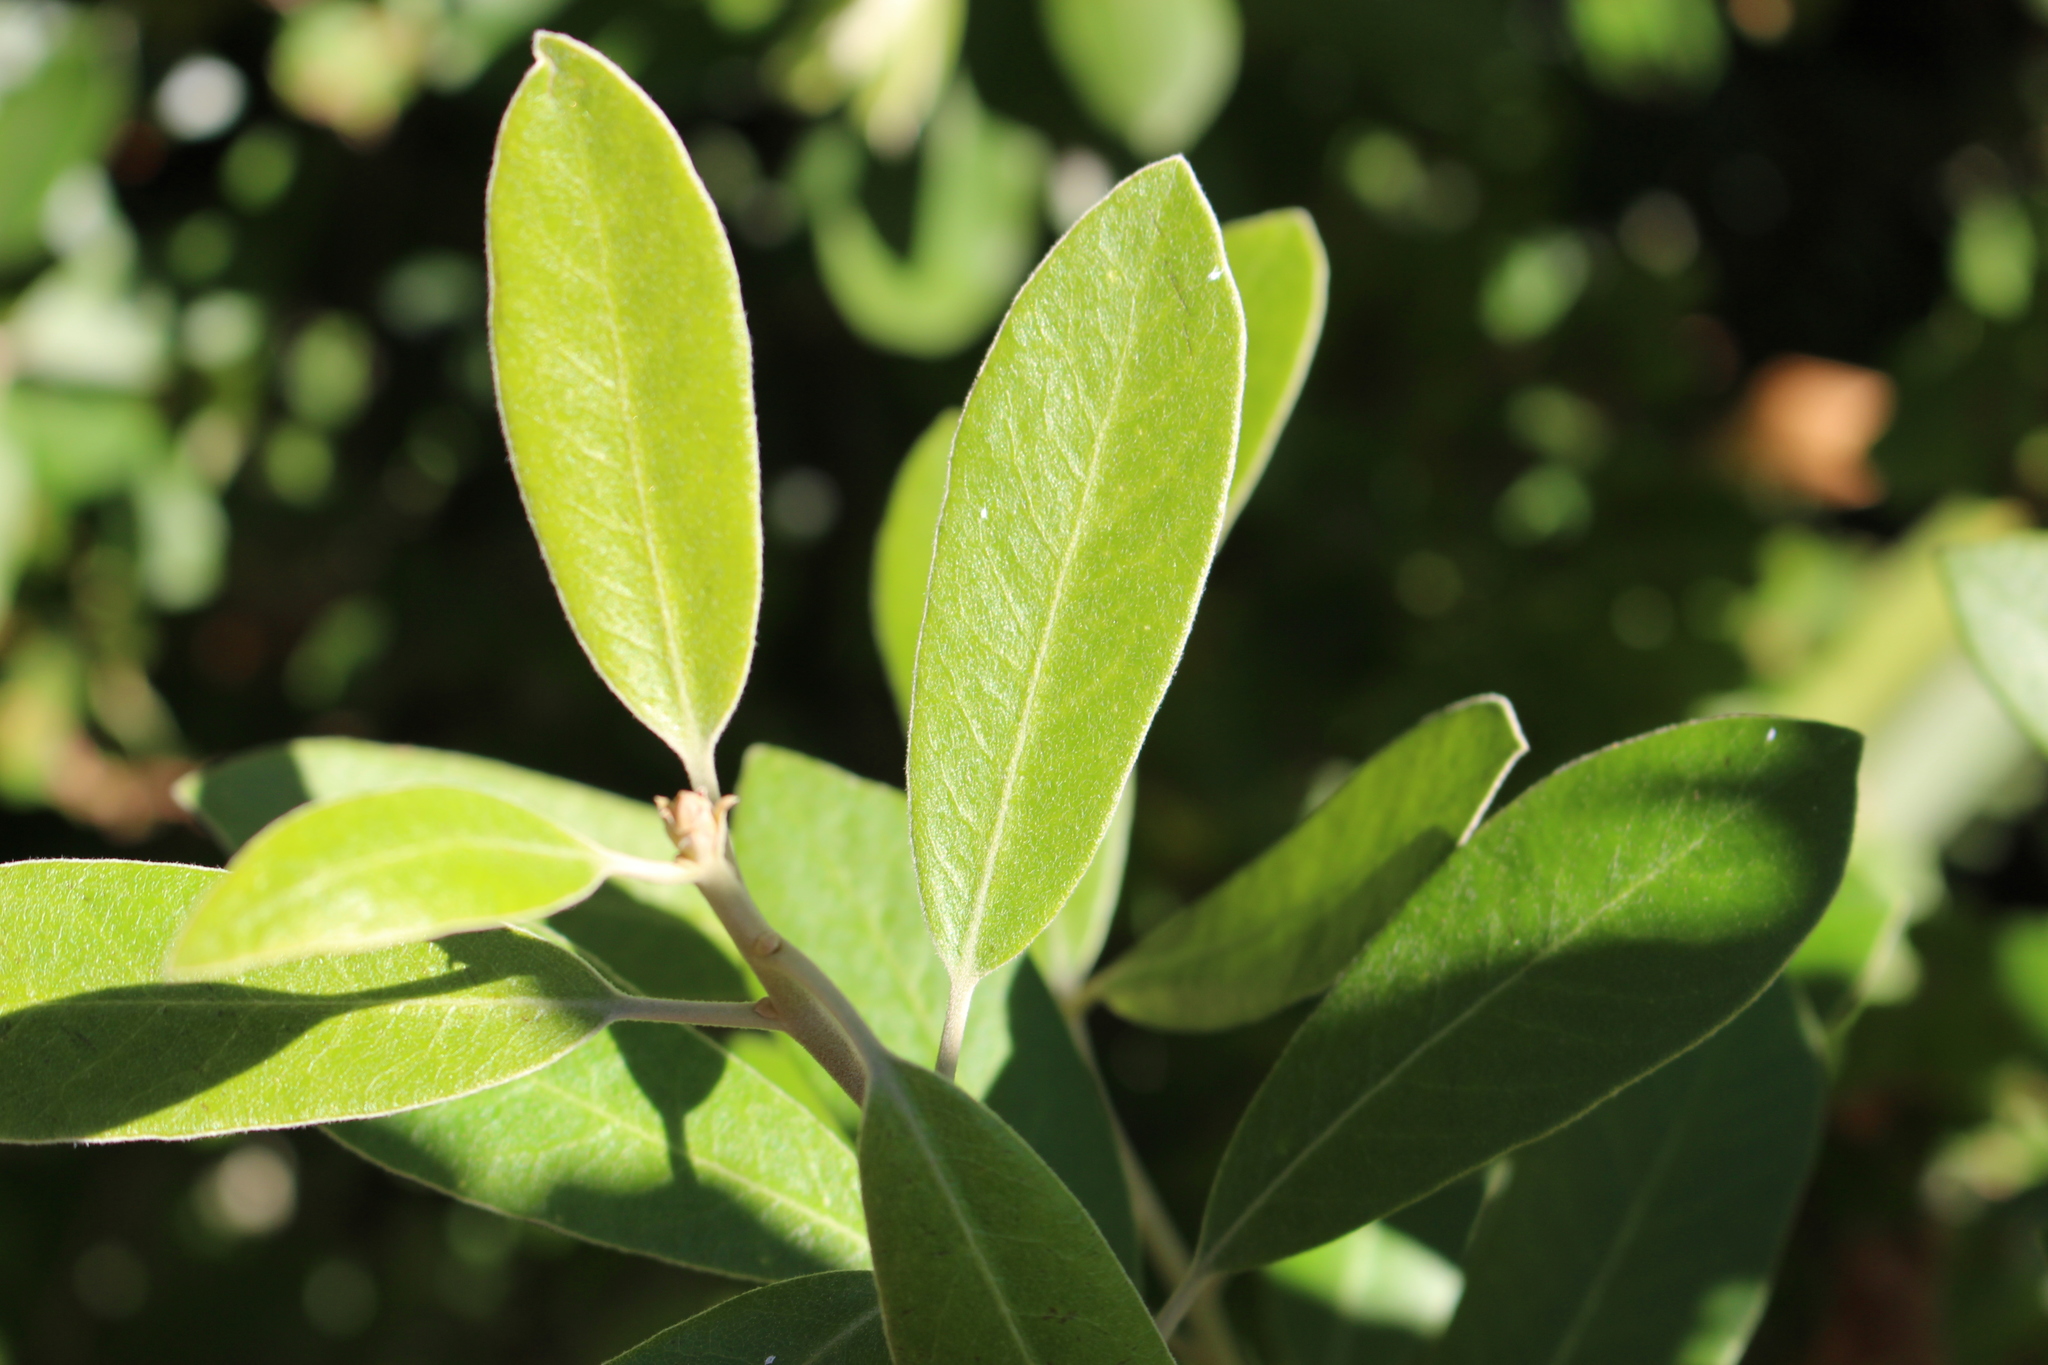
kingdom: Plantae
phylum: Tracheophyta
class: Magnoliopsida
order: Apiales
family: Pittosporaceae
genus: Pittosporum
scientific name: Pittosporum ralphii
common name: Ralph's desertwillow
